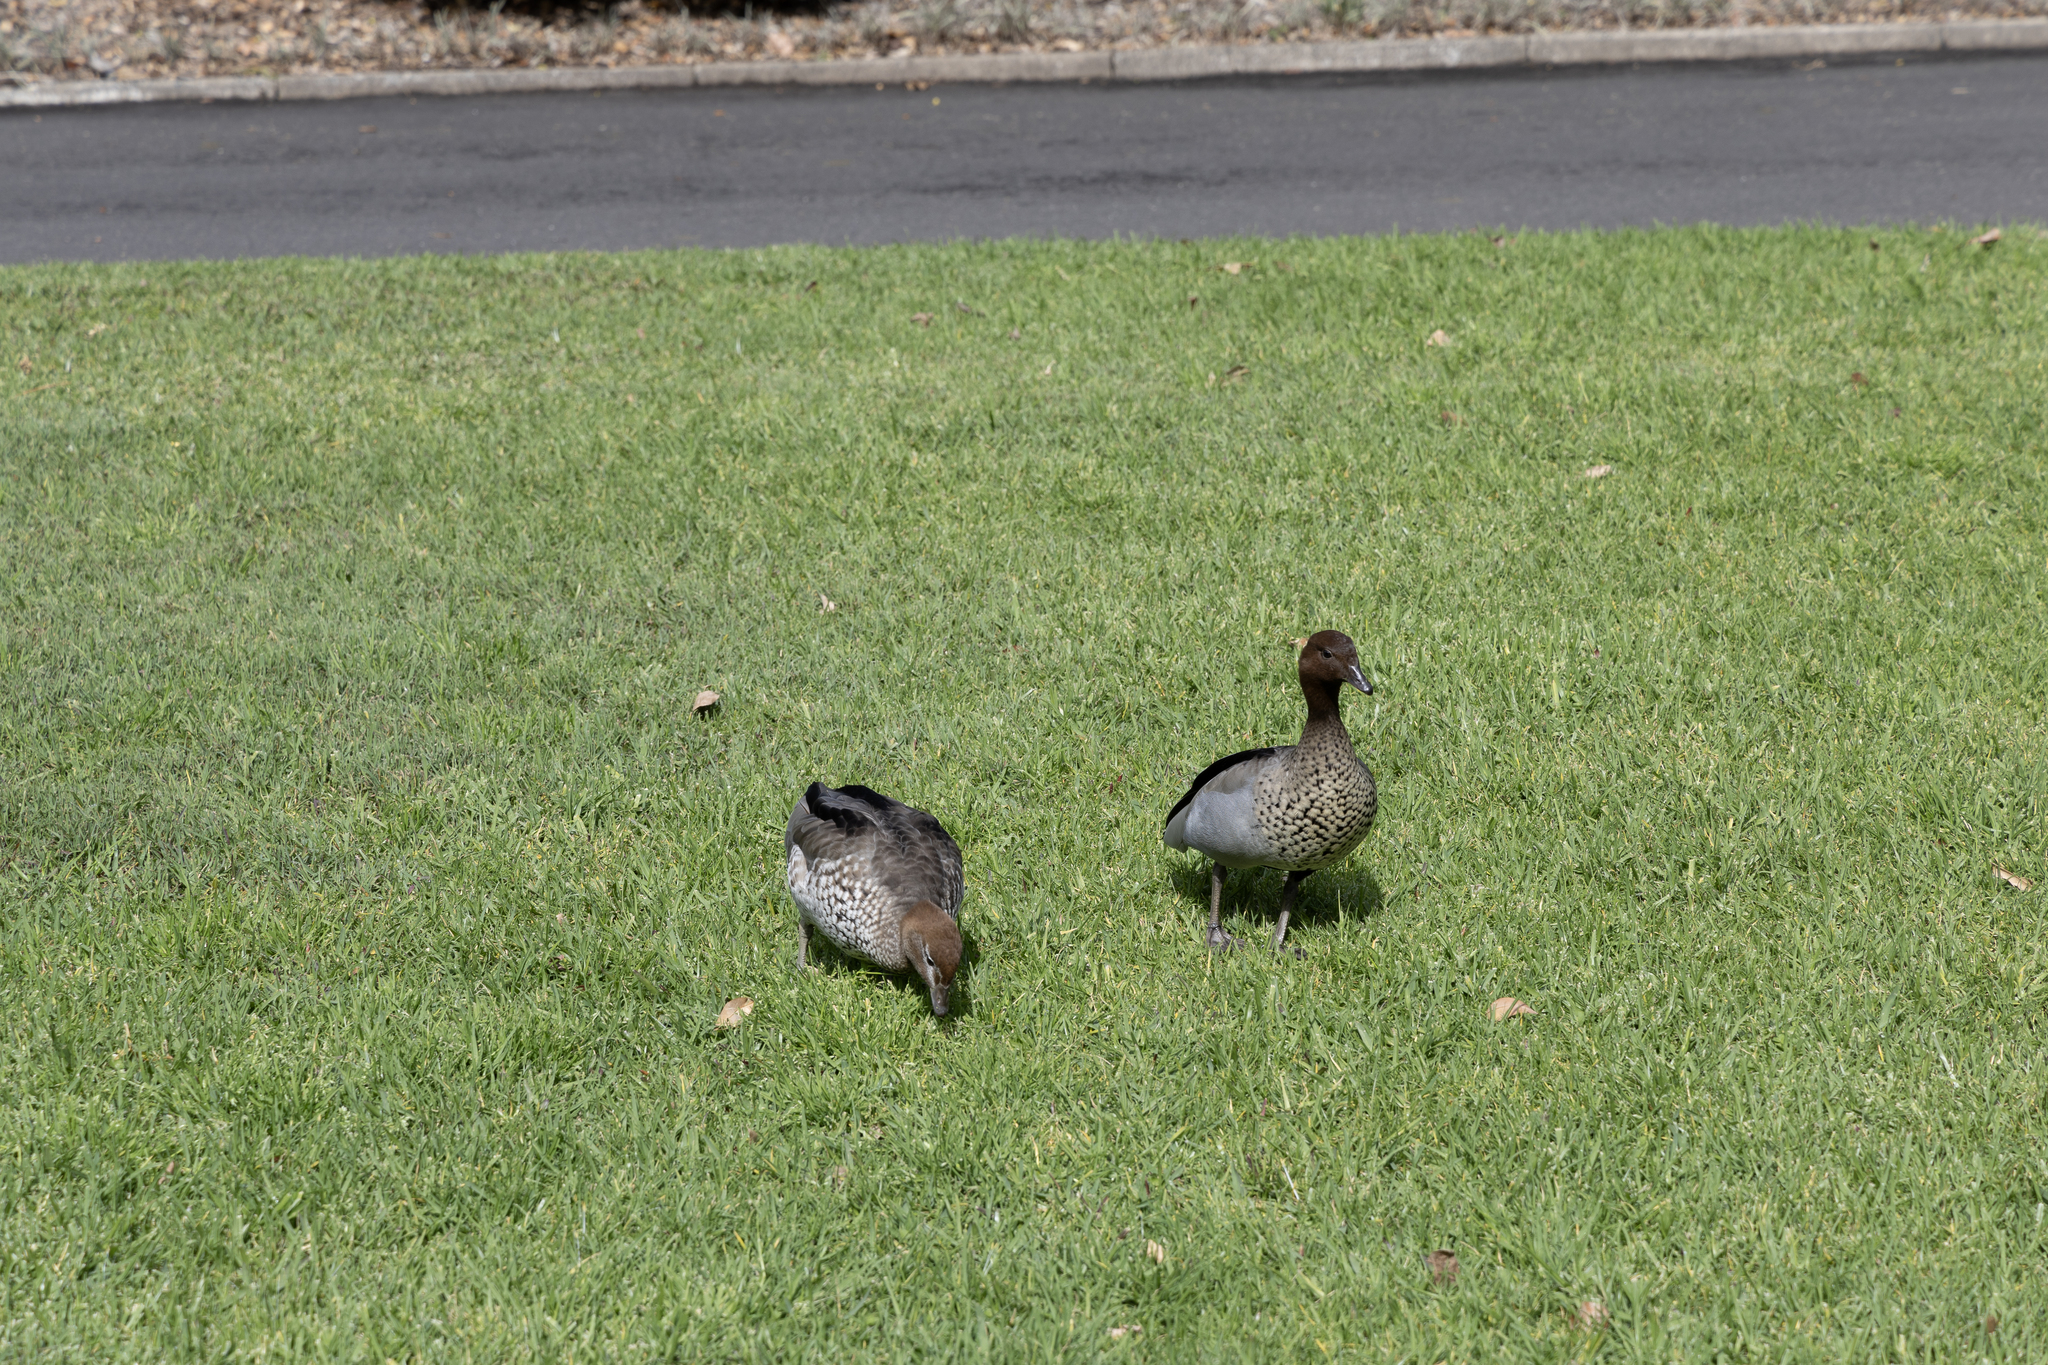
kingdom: Animalia
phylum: Chordata
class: Aves
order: Anseriformes
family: Anatidae
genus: Chenonetta
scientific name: Chenonetta jubata
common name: Maned duck
